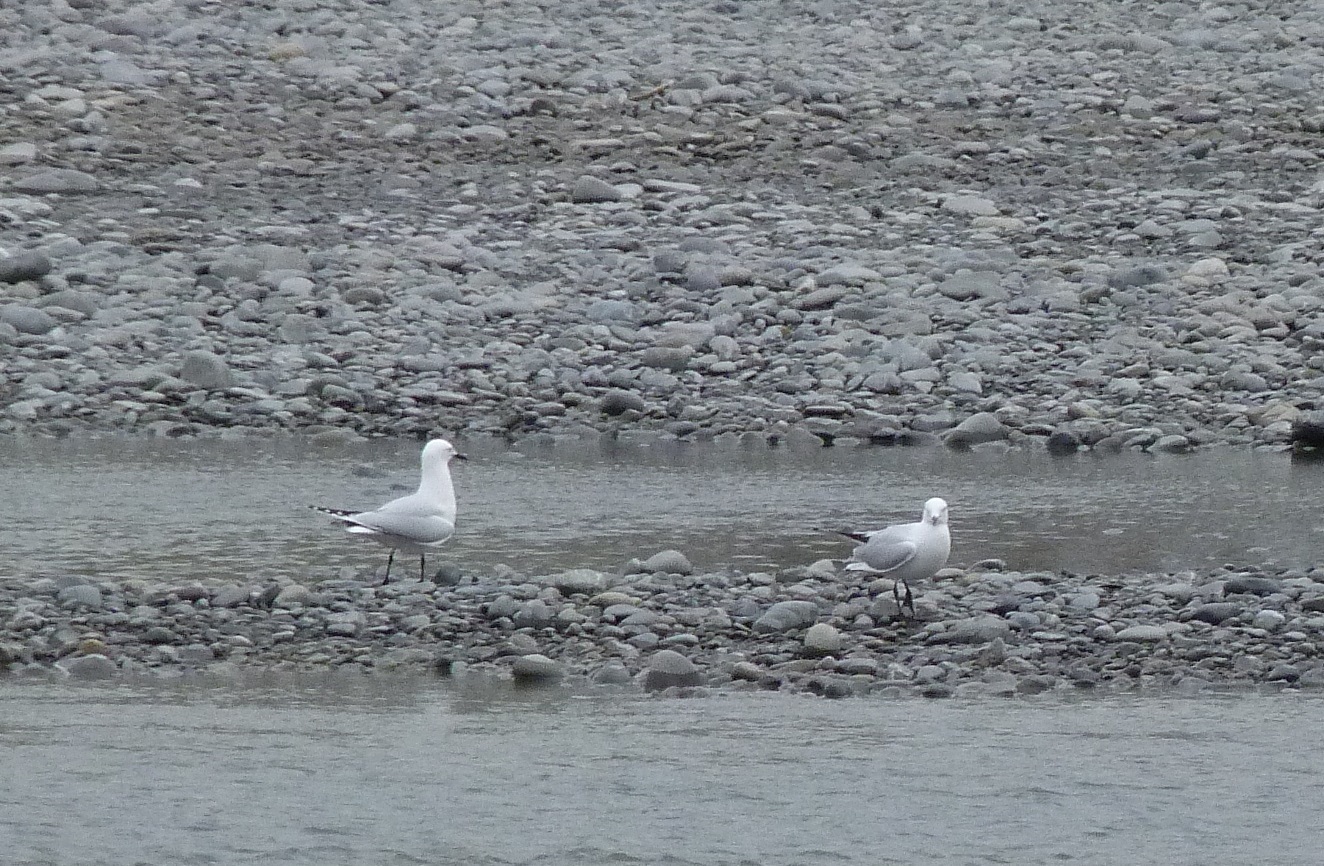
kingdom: Animalia
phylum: Chordata
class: Aves
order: Charadriiformes
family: Laridae
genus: Chroicocephalus
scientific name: Chroicocephalus bulleri
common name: Black-billed gull
